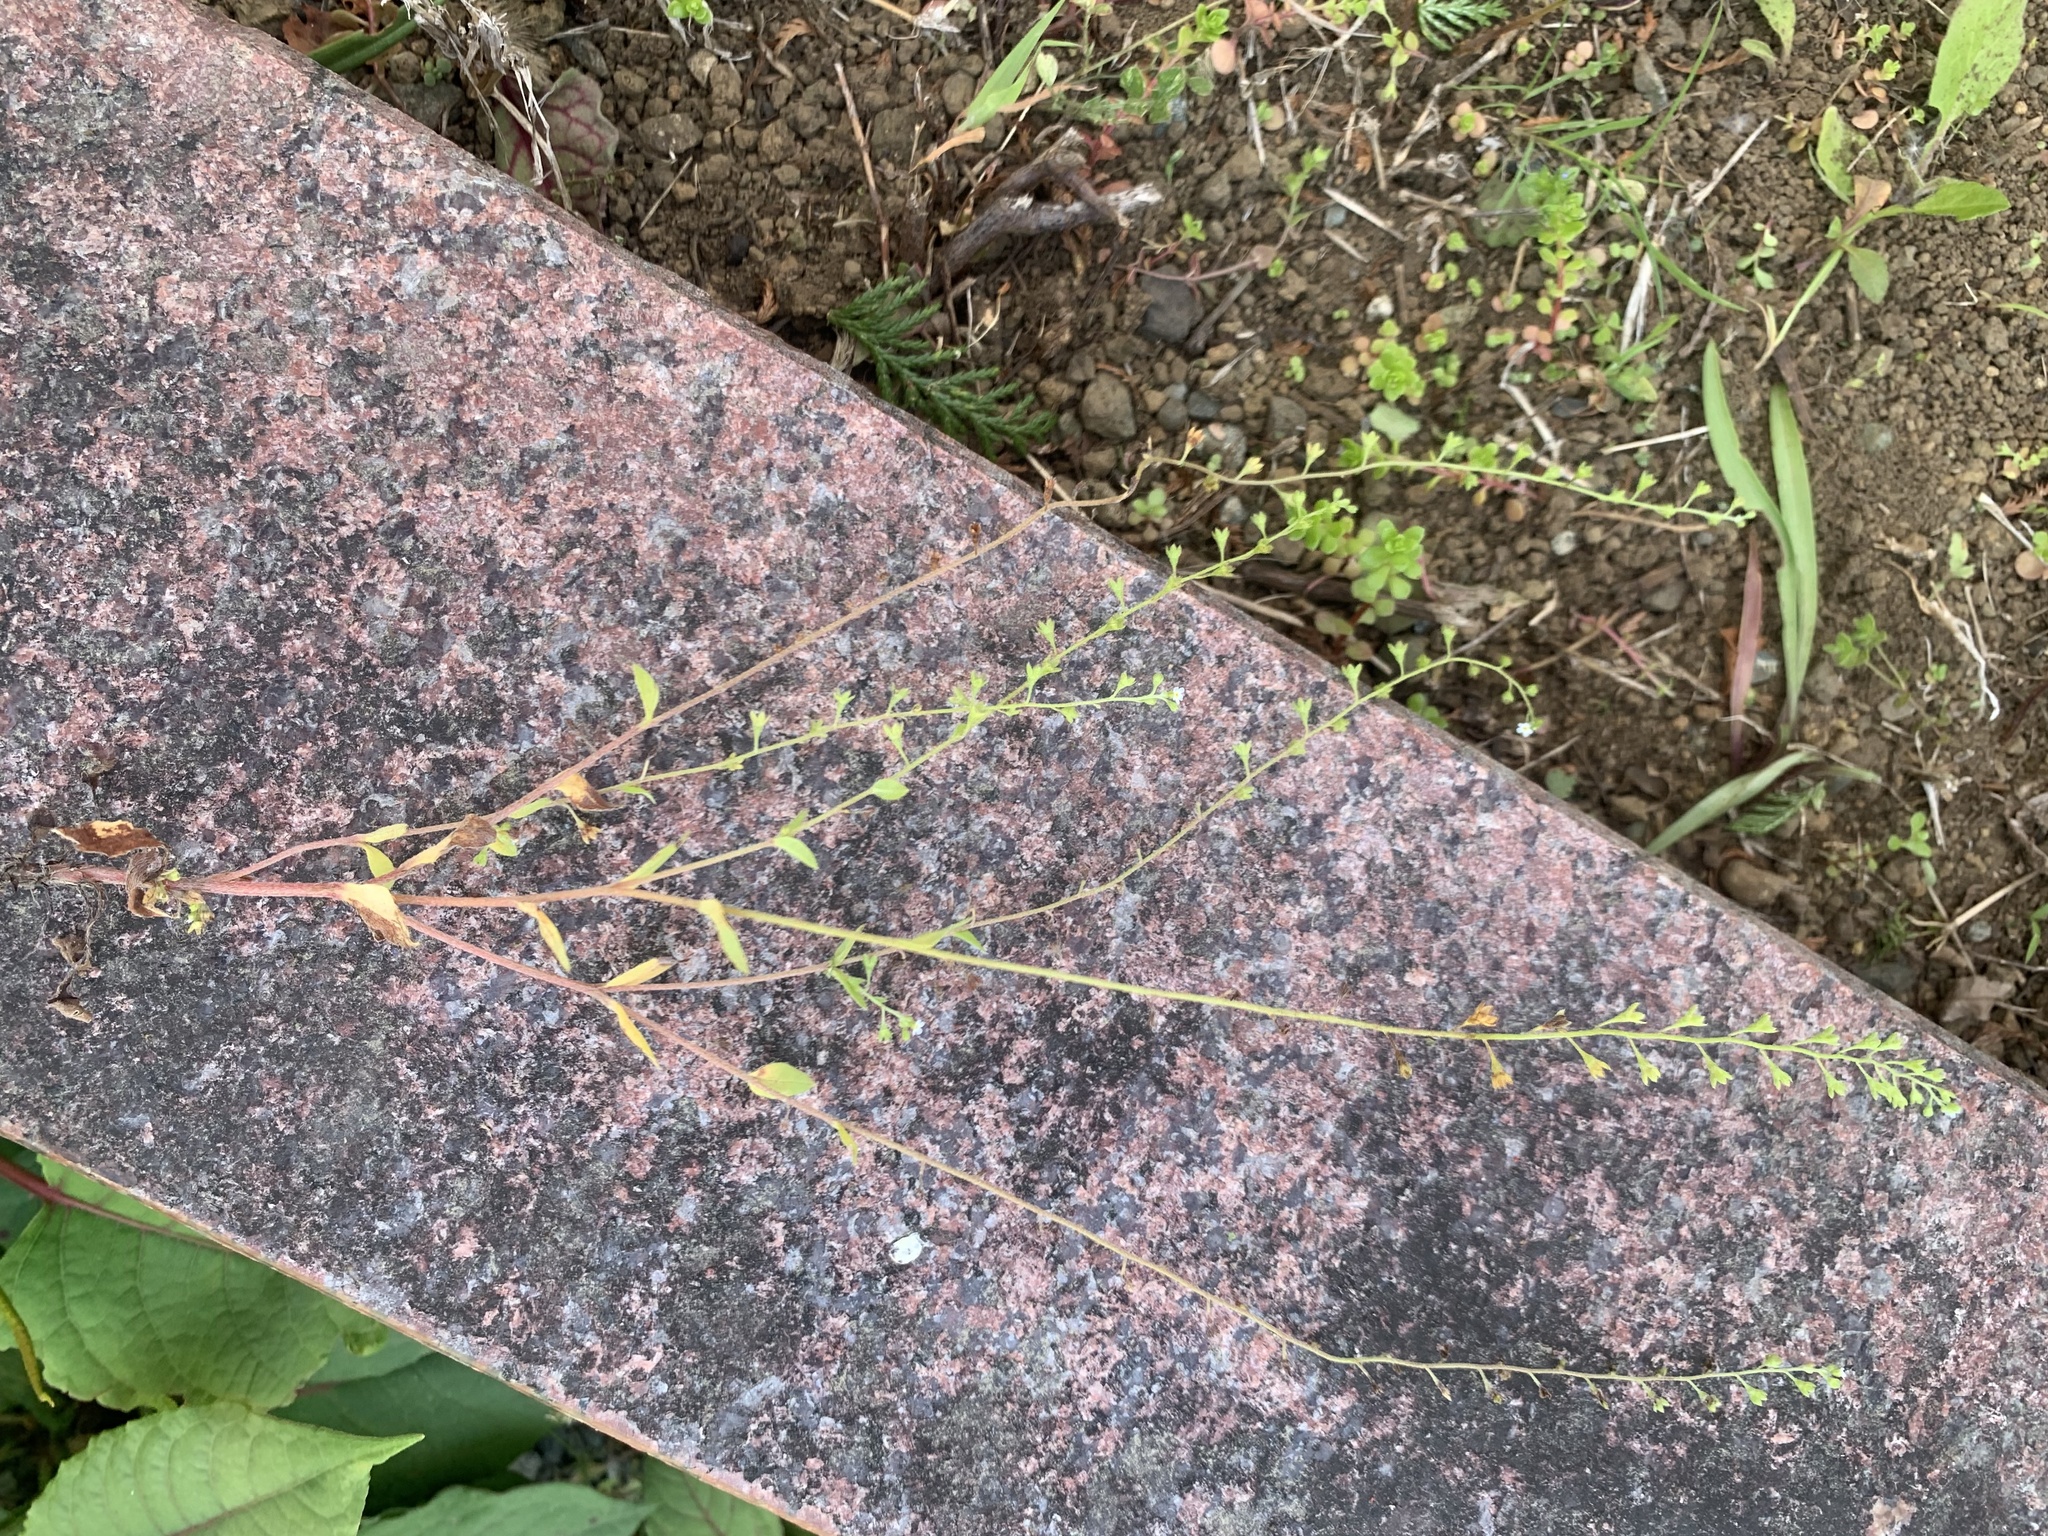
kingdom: Plantae
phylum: Tracheophyta
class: Magnoliopsida
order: Boraginales
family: Boraginaceae
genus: Trigonotis
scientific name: Trigonotis peduncularis
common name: Cucumber herb
